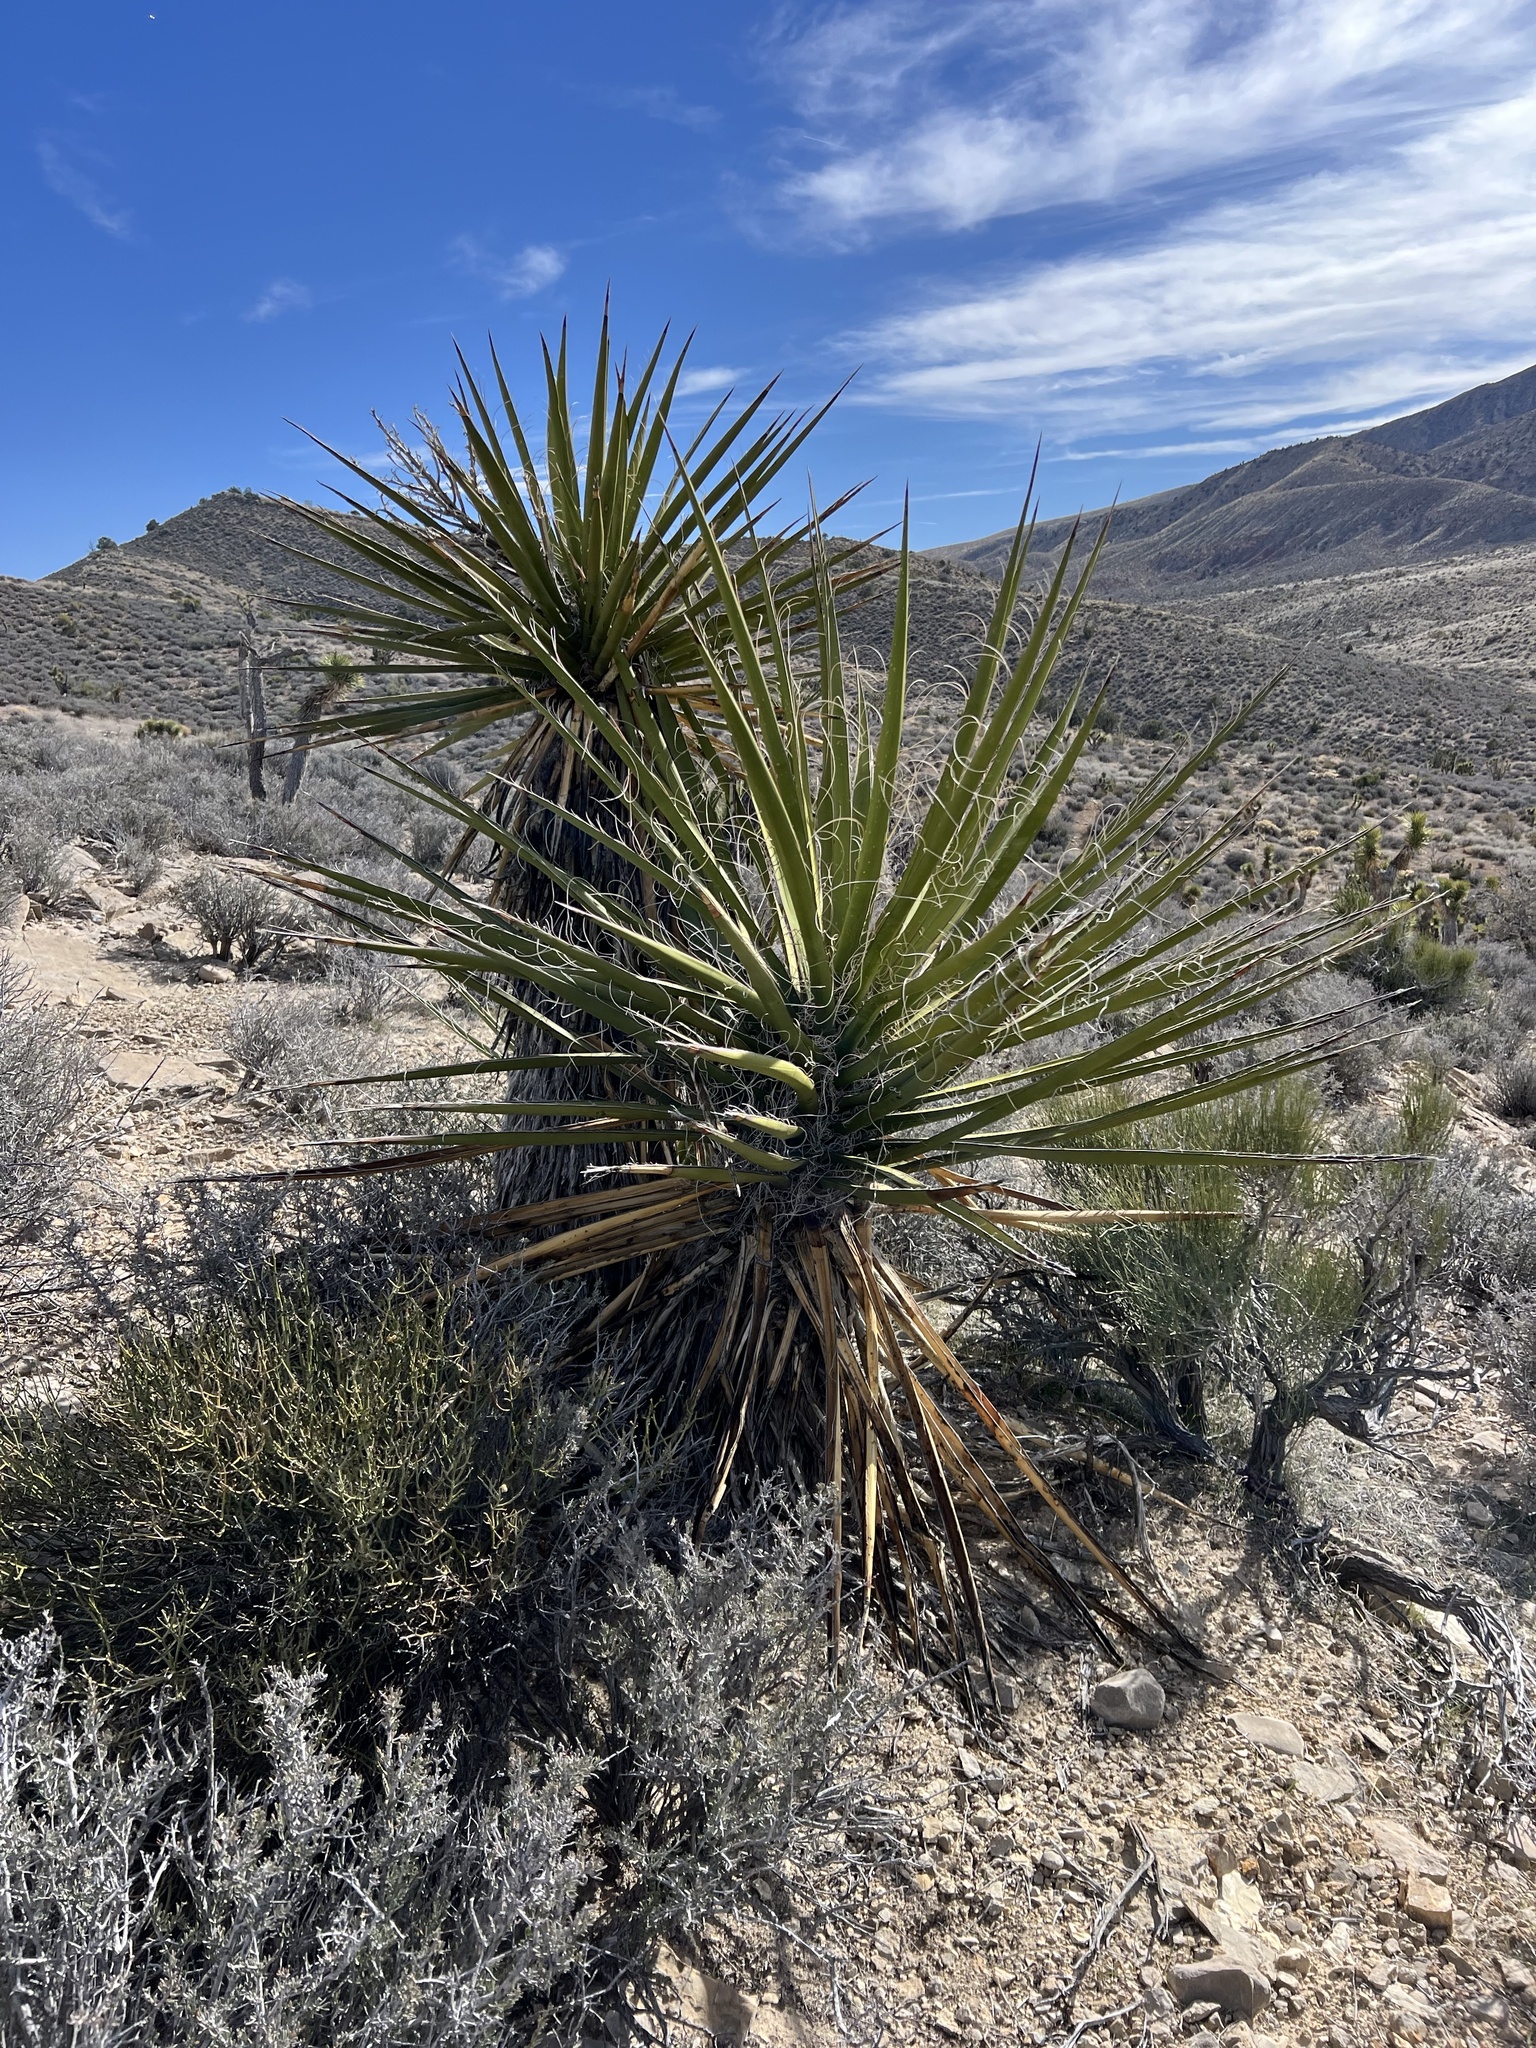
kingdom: Plantae
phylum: Tracheophyta
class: Liliopsida
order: Asparagales
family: Asparagaceae
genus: Yucca
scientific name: Yucca schidigera
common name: Mojave yucca
